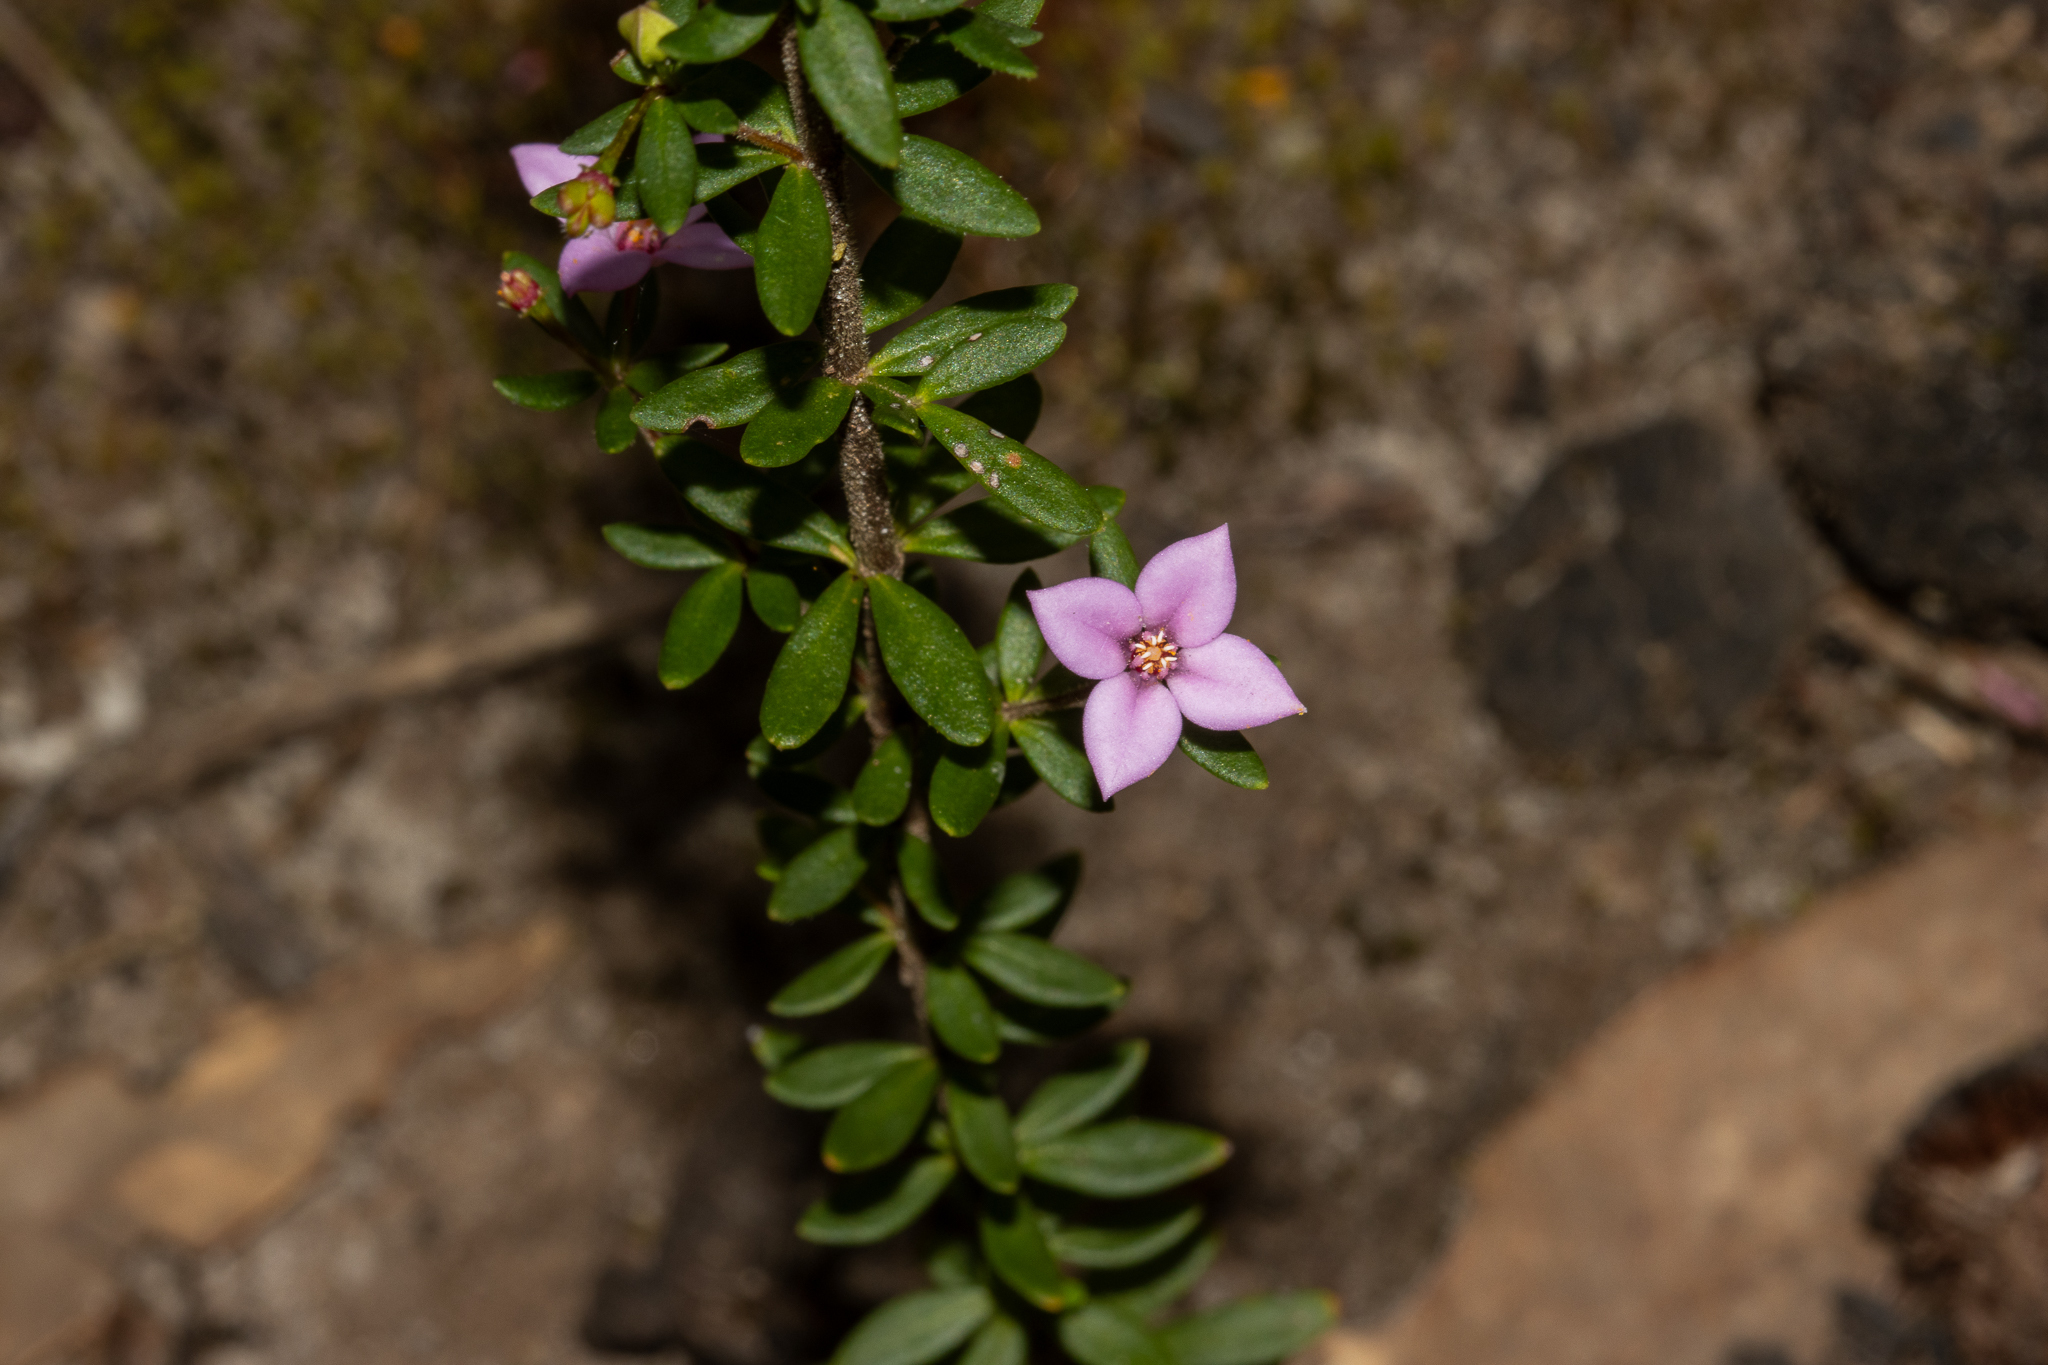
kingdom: Plantae
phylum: Tracheophyta
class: Magnoliopsida
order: Sapindales
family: Rutaceae
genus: Boronia
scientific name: Boronia edwardsii
